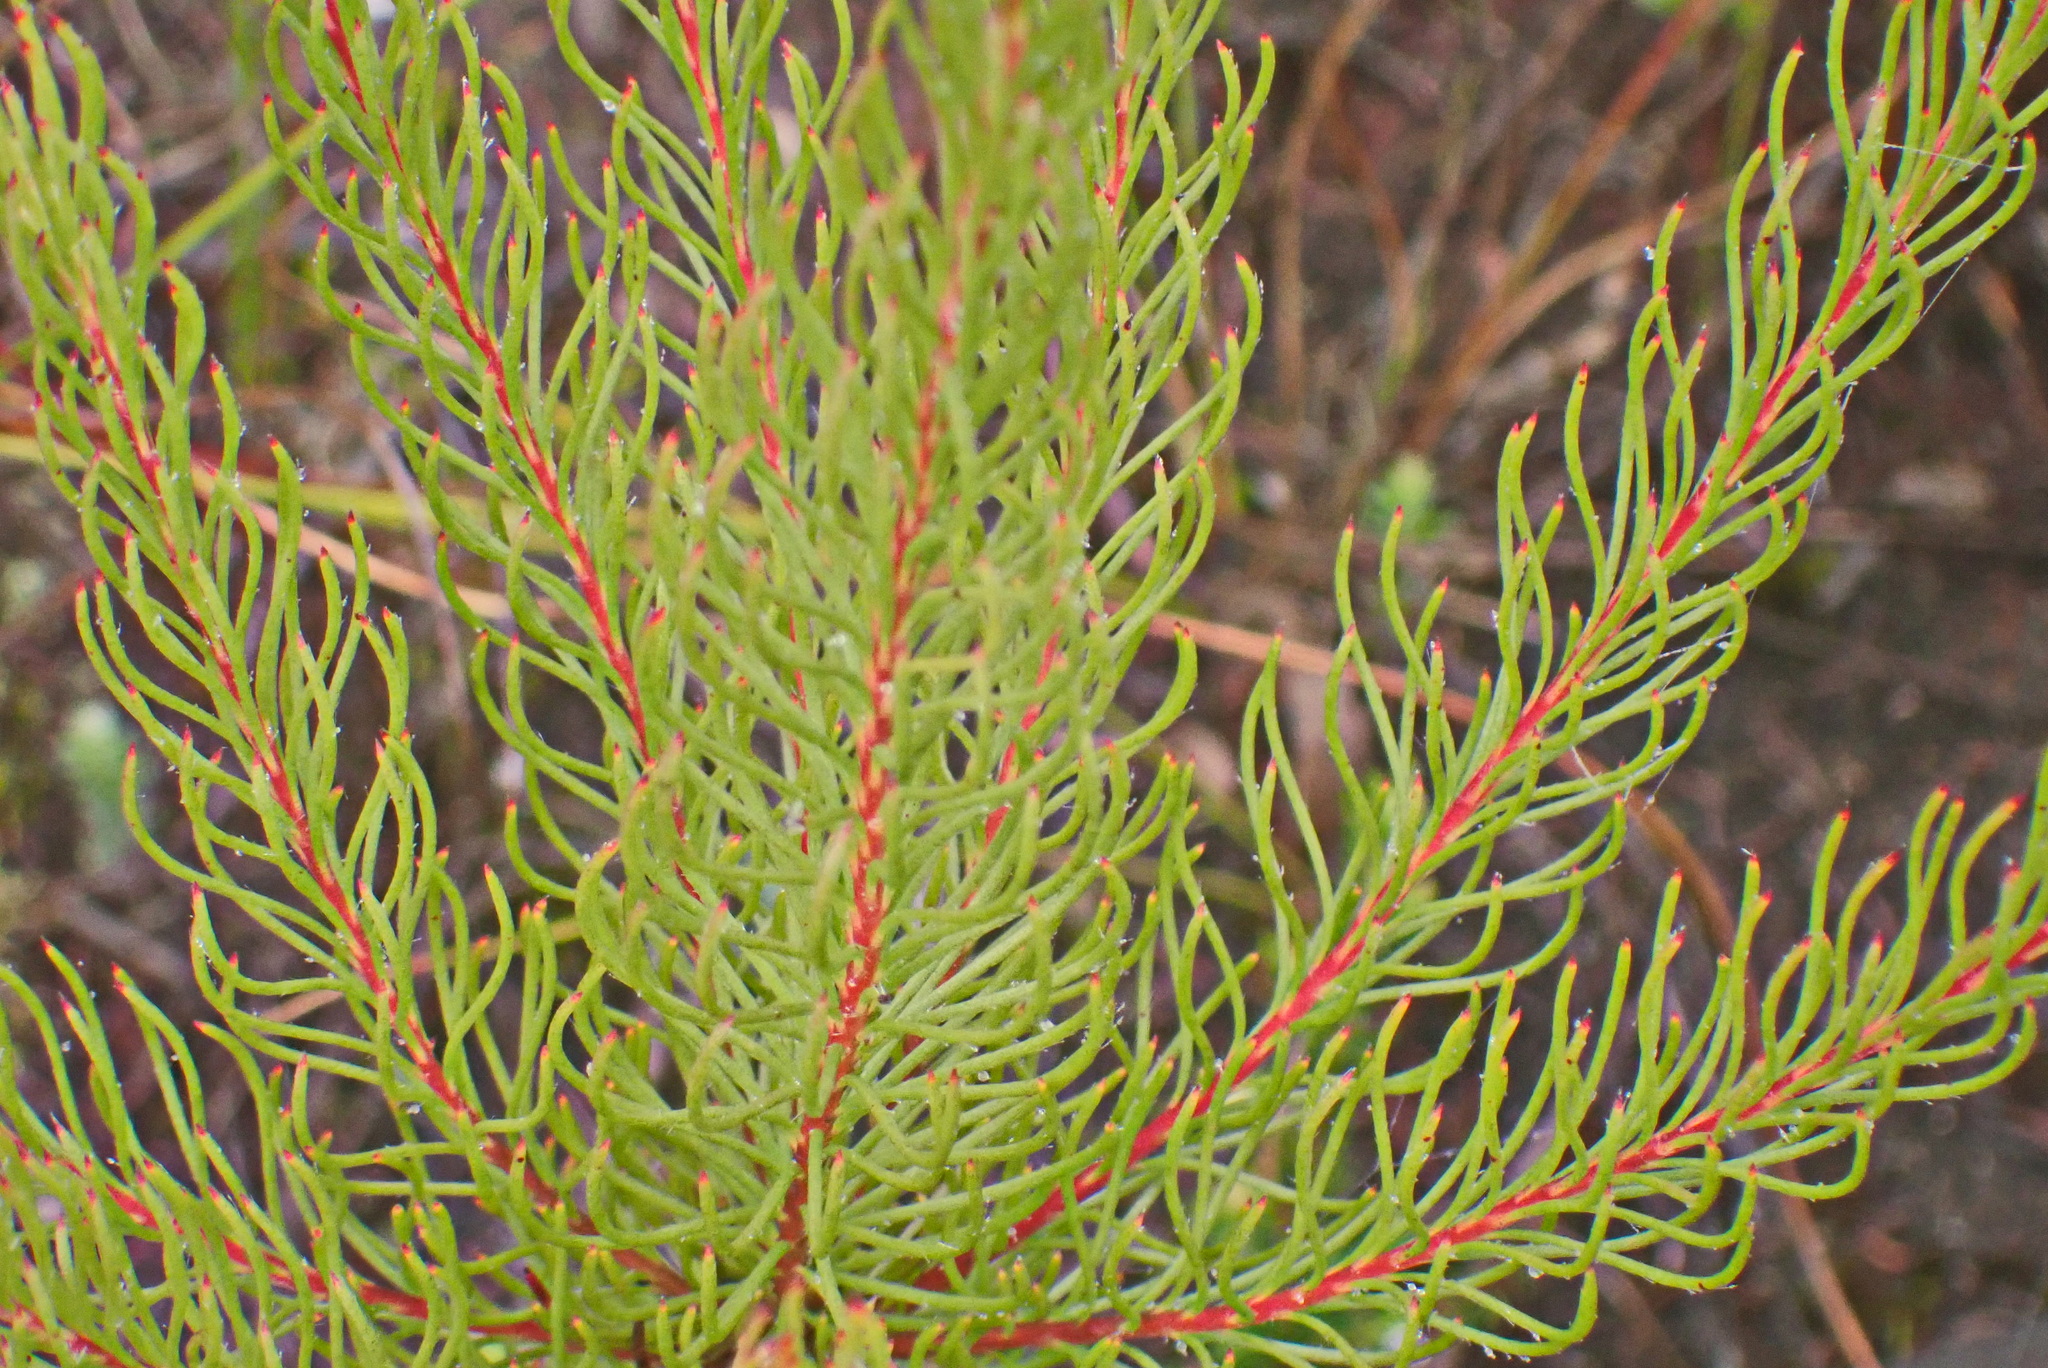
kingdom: Plantae
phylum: Tracheophyta
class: Magnoliopsida
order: Proteales
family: Proteaceae
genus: Spatalla
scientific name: Spatalla barbigera
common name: Fine-leaf spoon
